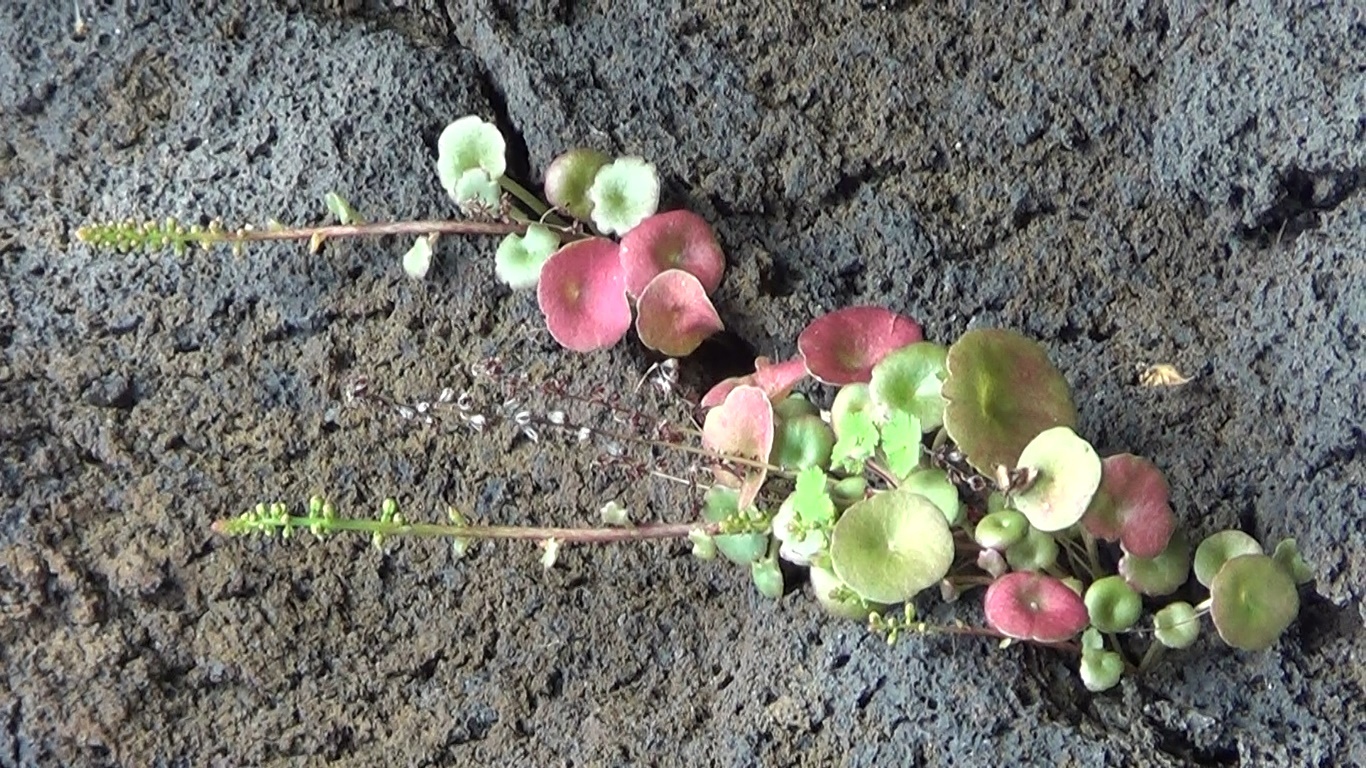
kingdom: Plantae
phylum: Tracheophyta
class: Magnoliopsida
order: Saxifragales
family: Crassulaceae
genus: Umbilicus
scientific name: Umbilicus rupestris
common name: Navelwort
